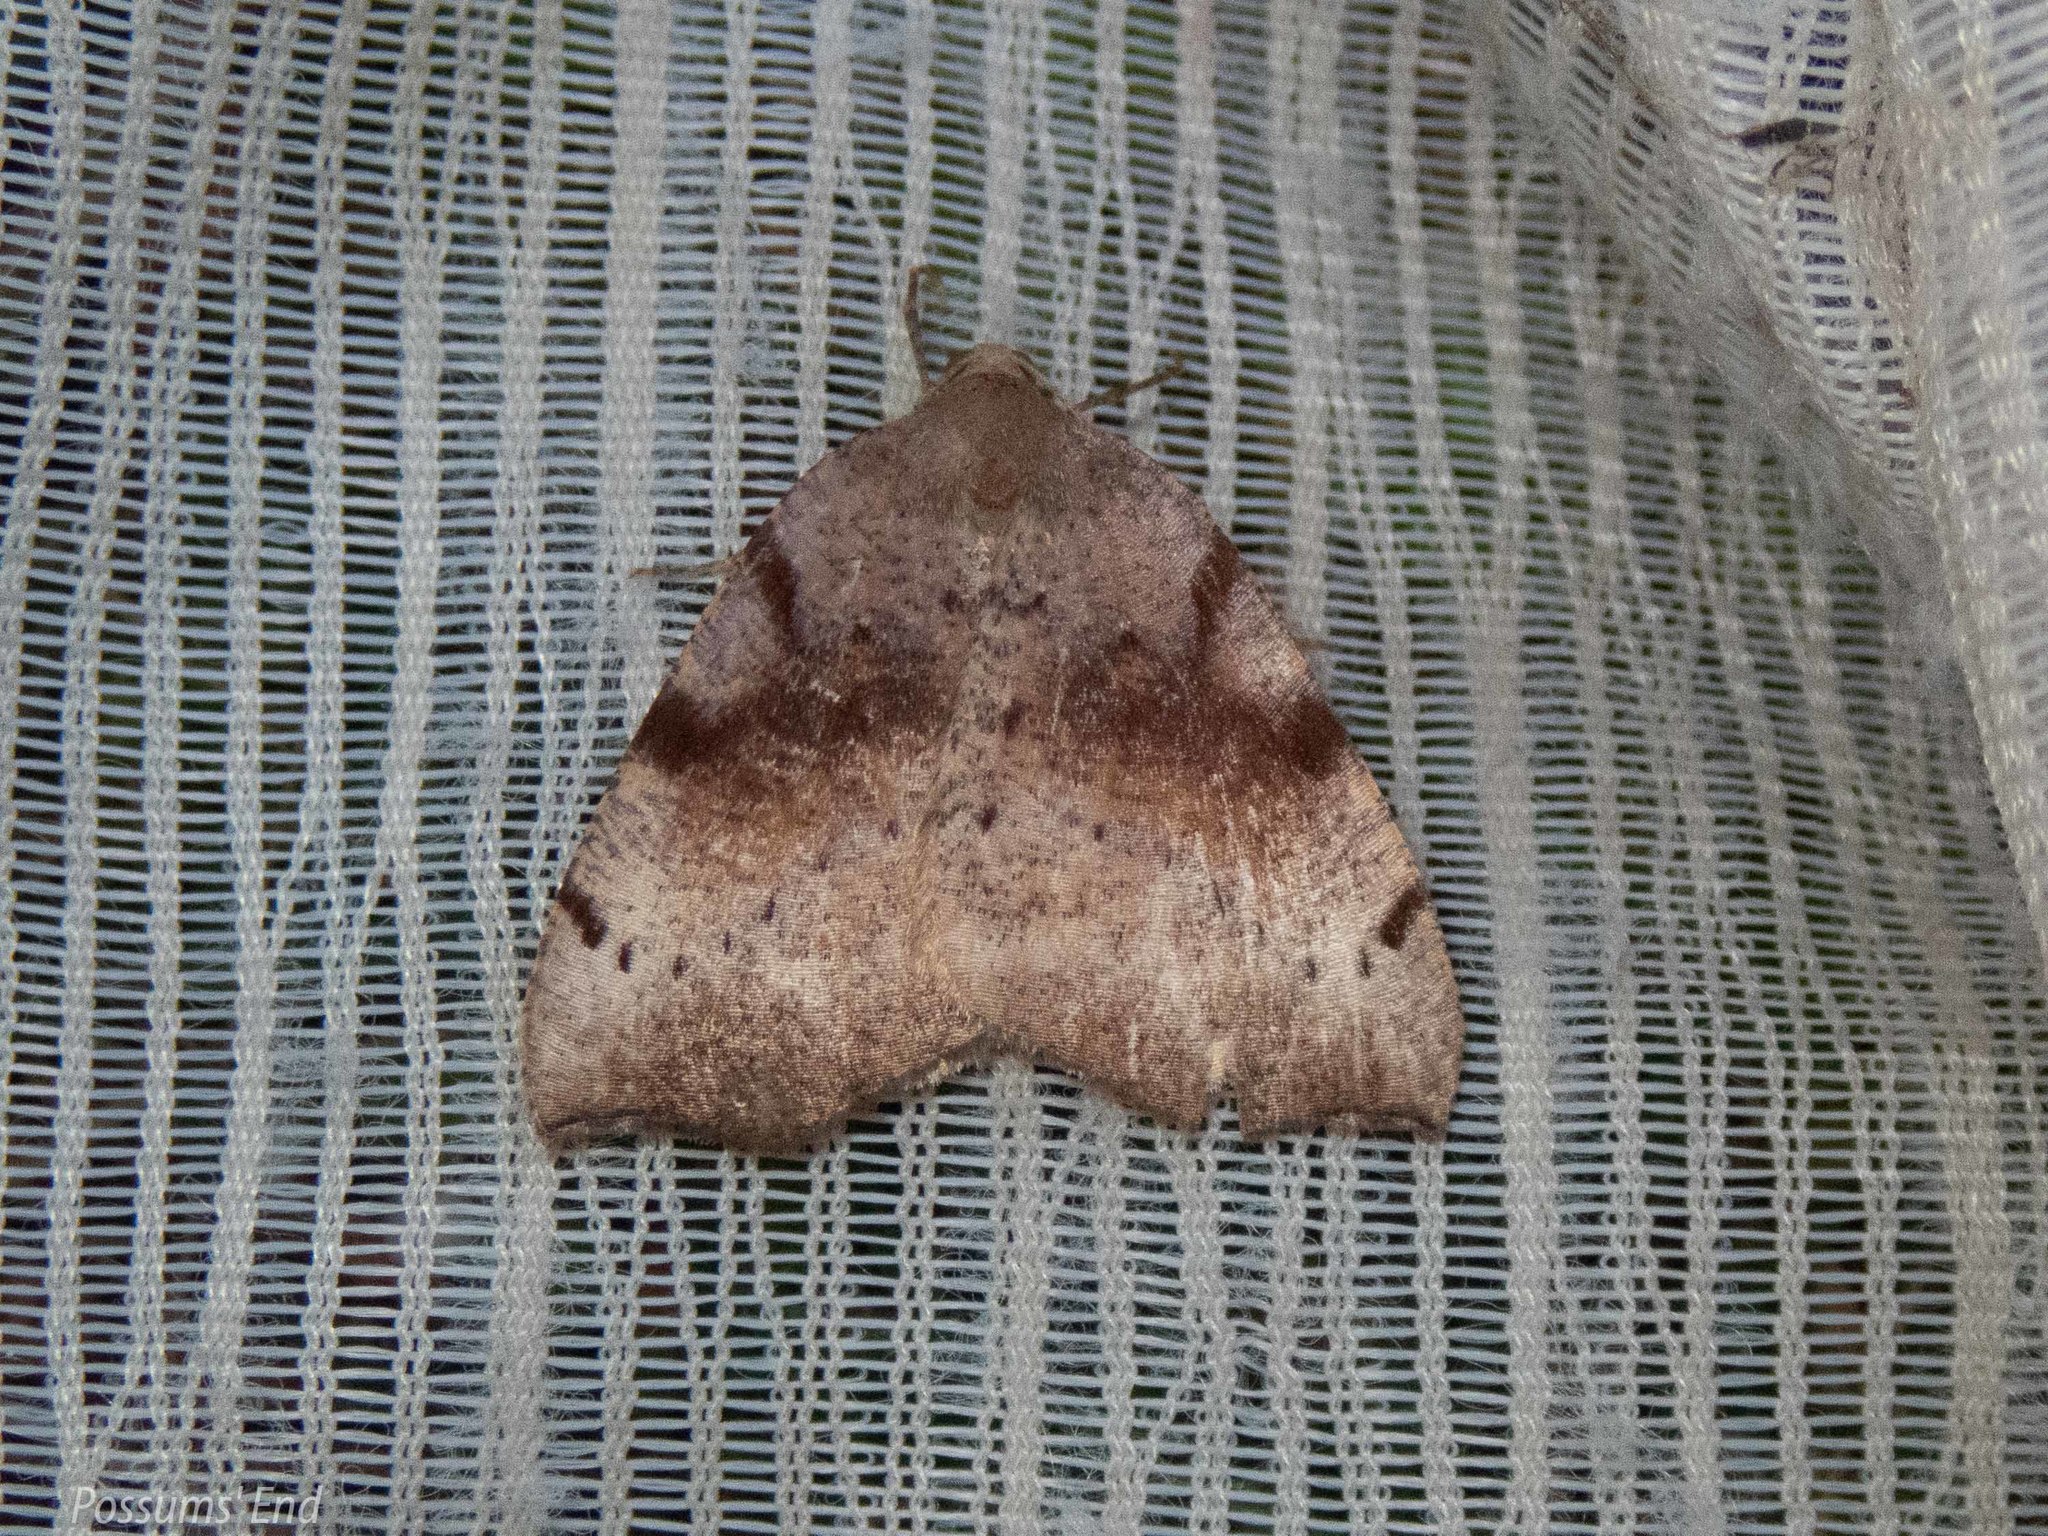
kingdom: Animalia
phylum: Arthropoda
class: Insecta
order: Lepidoptera
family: Geometridae
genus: Sestra
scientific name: Sestra flexata
